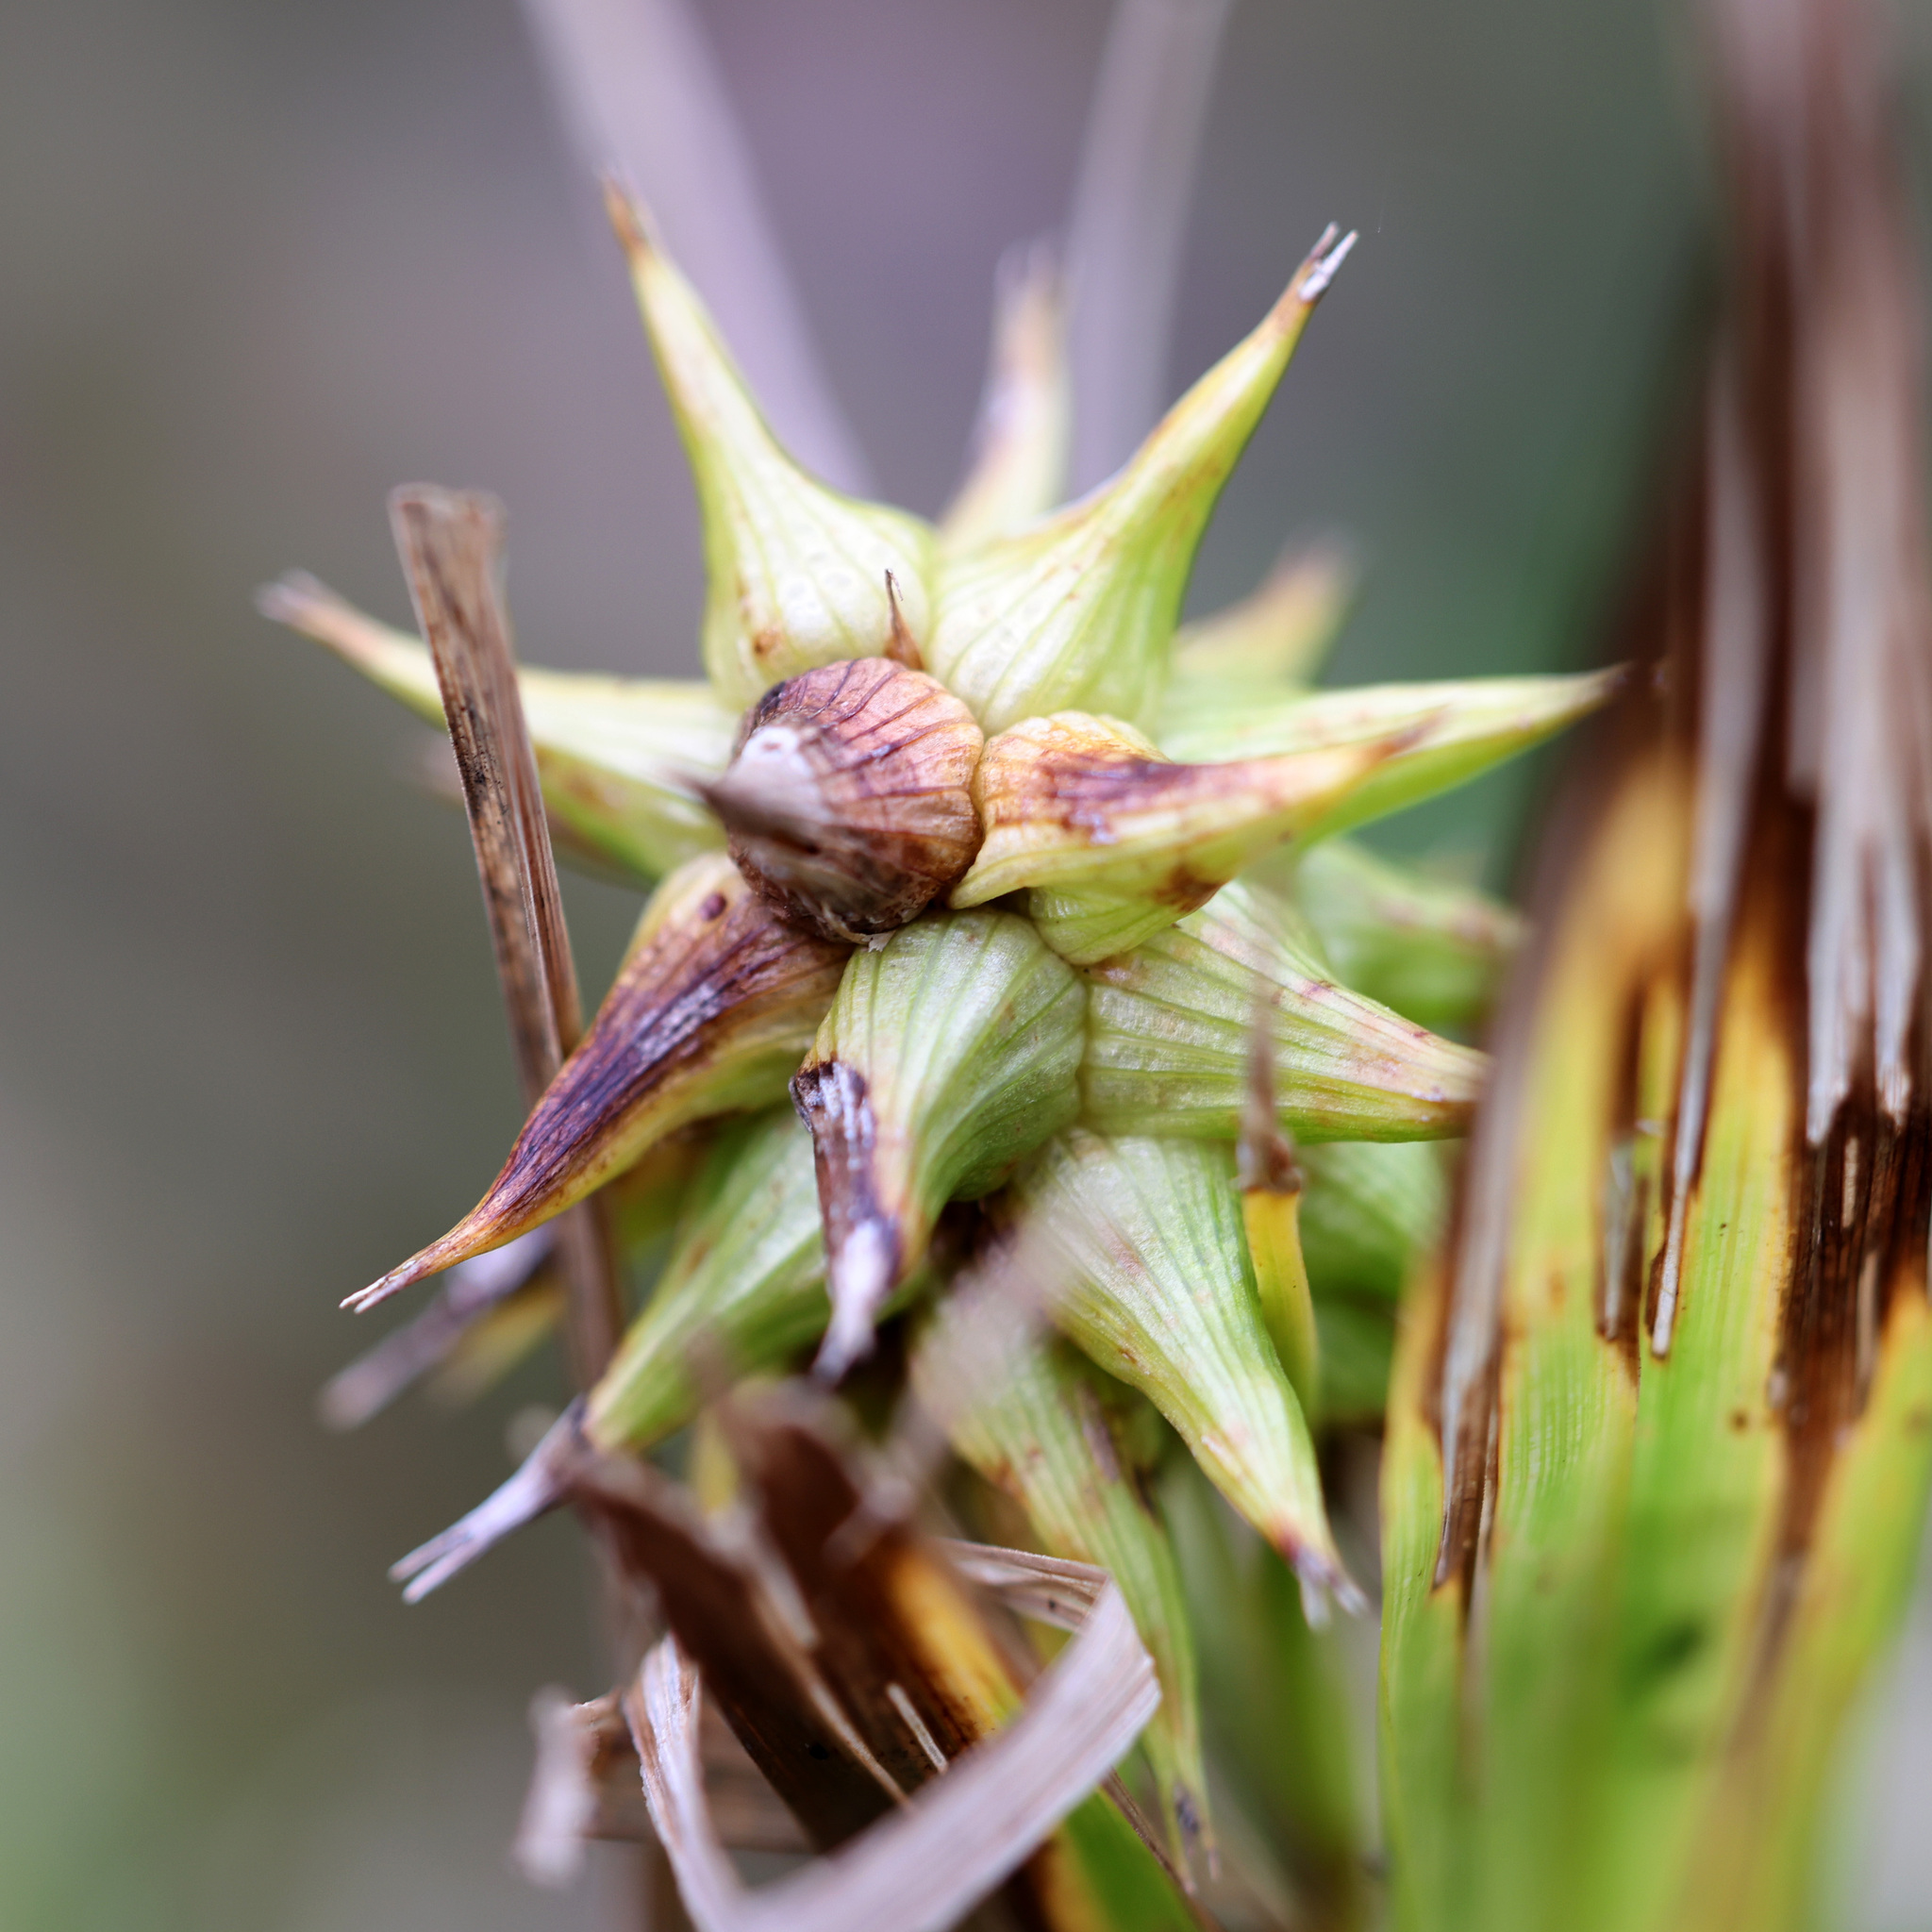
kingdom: Plantae
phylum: Tracheophyta
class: Liliopsida
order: Poales
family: Cyperaceae
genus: Carex
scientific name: Carex grayi
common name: Asa gray's sedge
